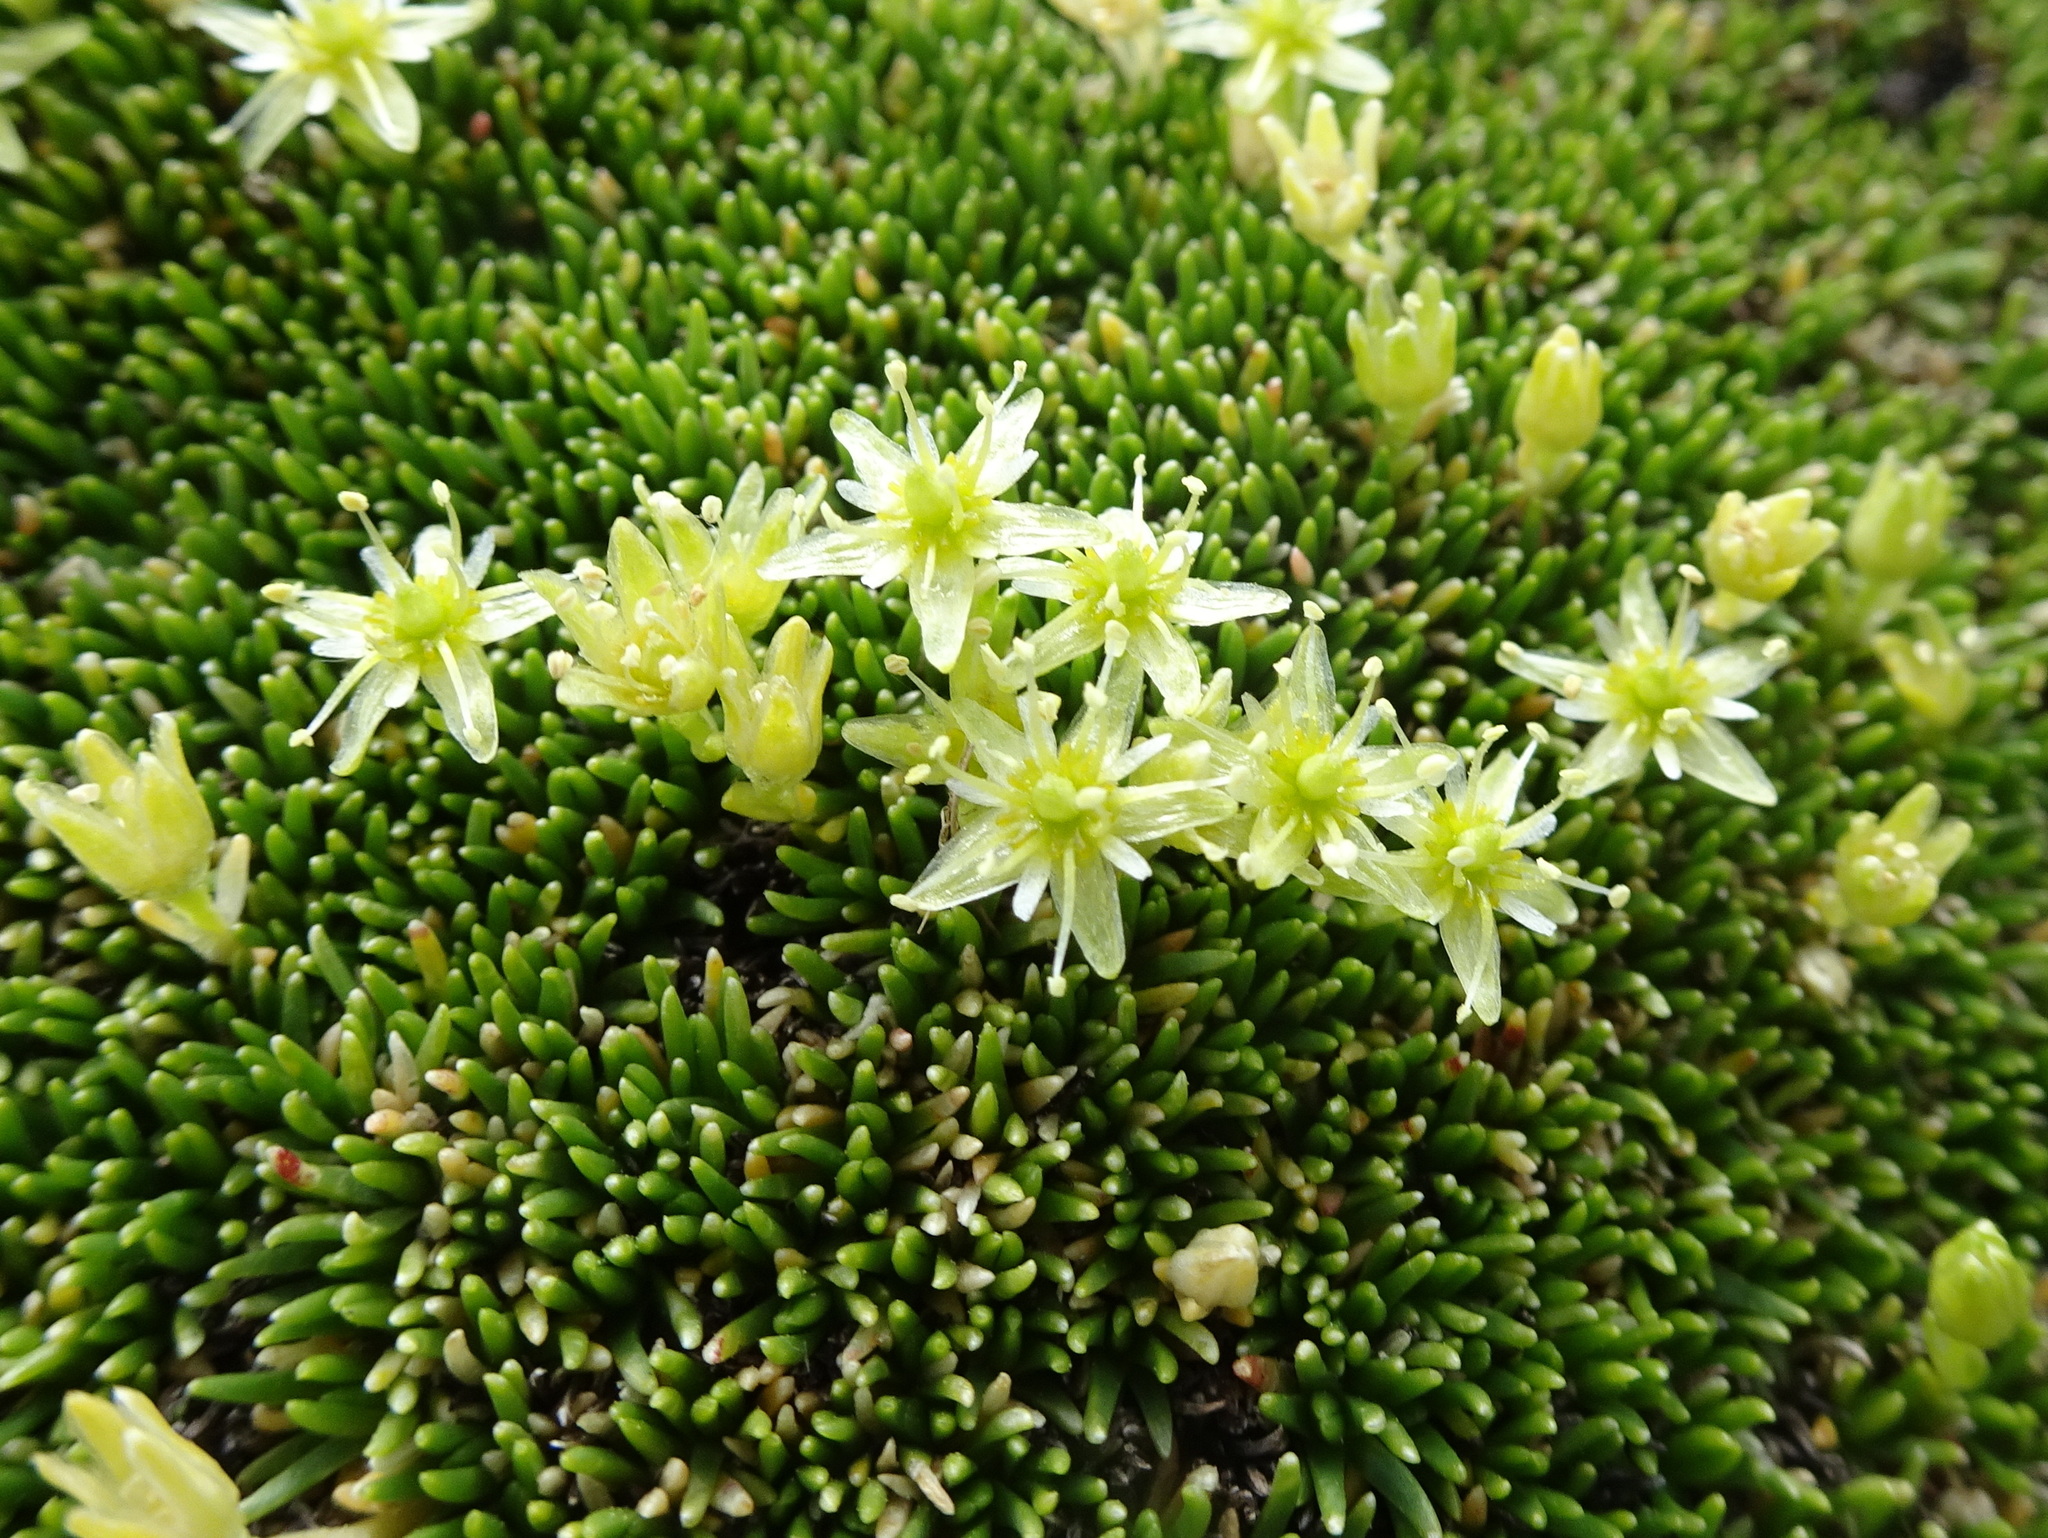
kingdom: Plantae
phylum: Tracheophyta
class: Magnoliopsida
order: Caryophyllales
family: Caryophyllaceae
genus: Cherleria
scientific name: Cherleria sedoides
